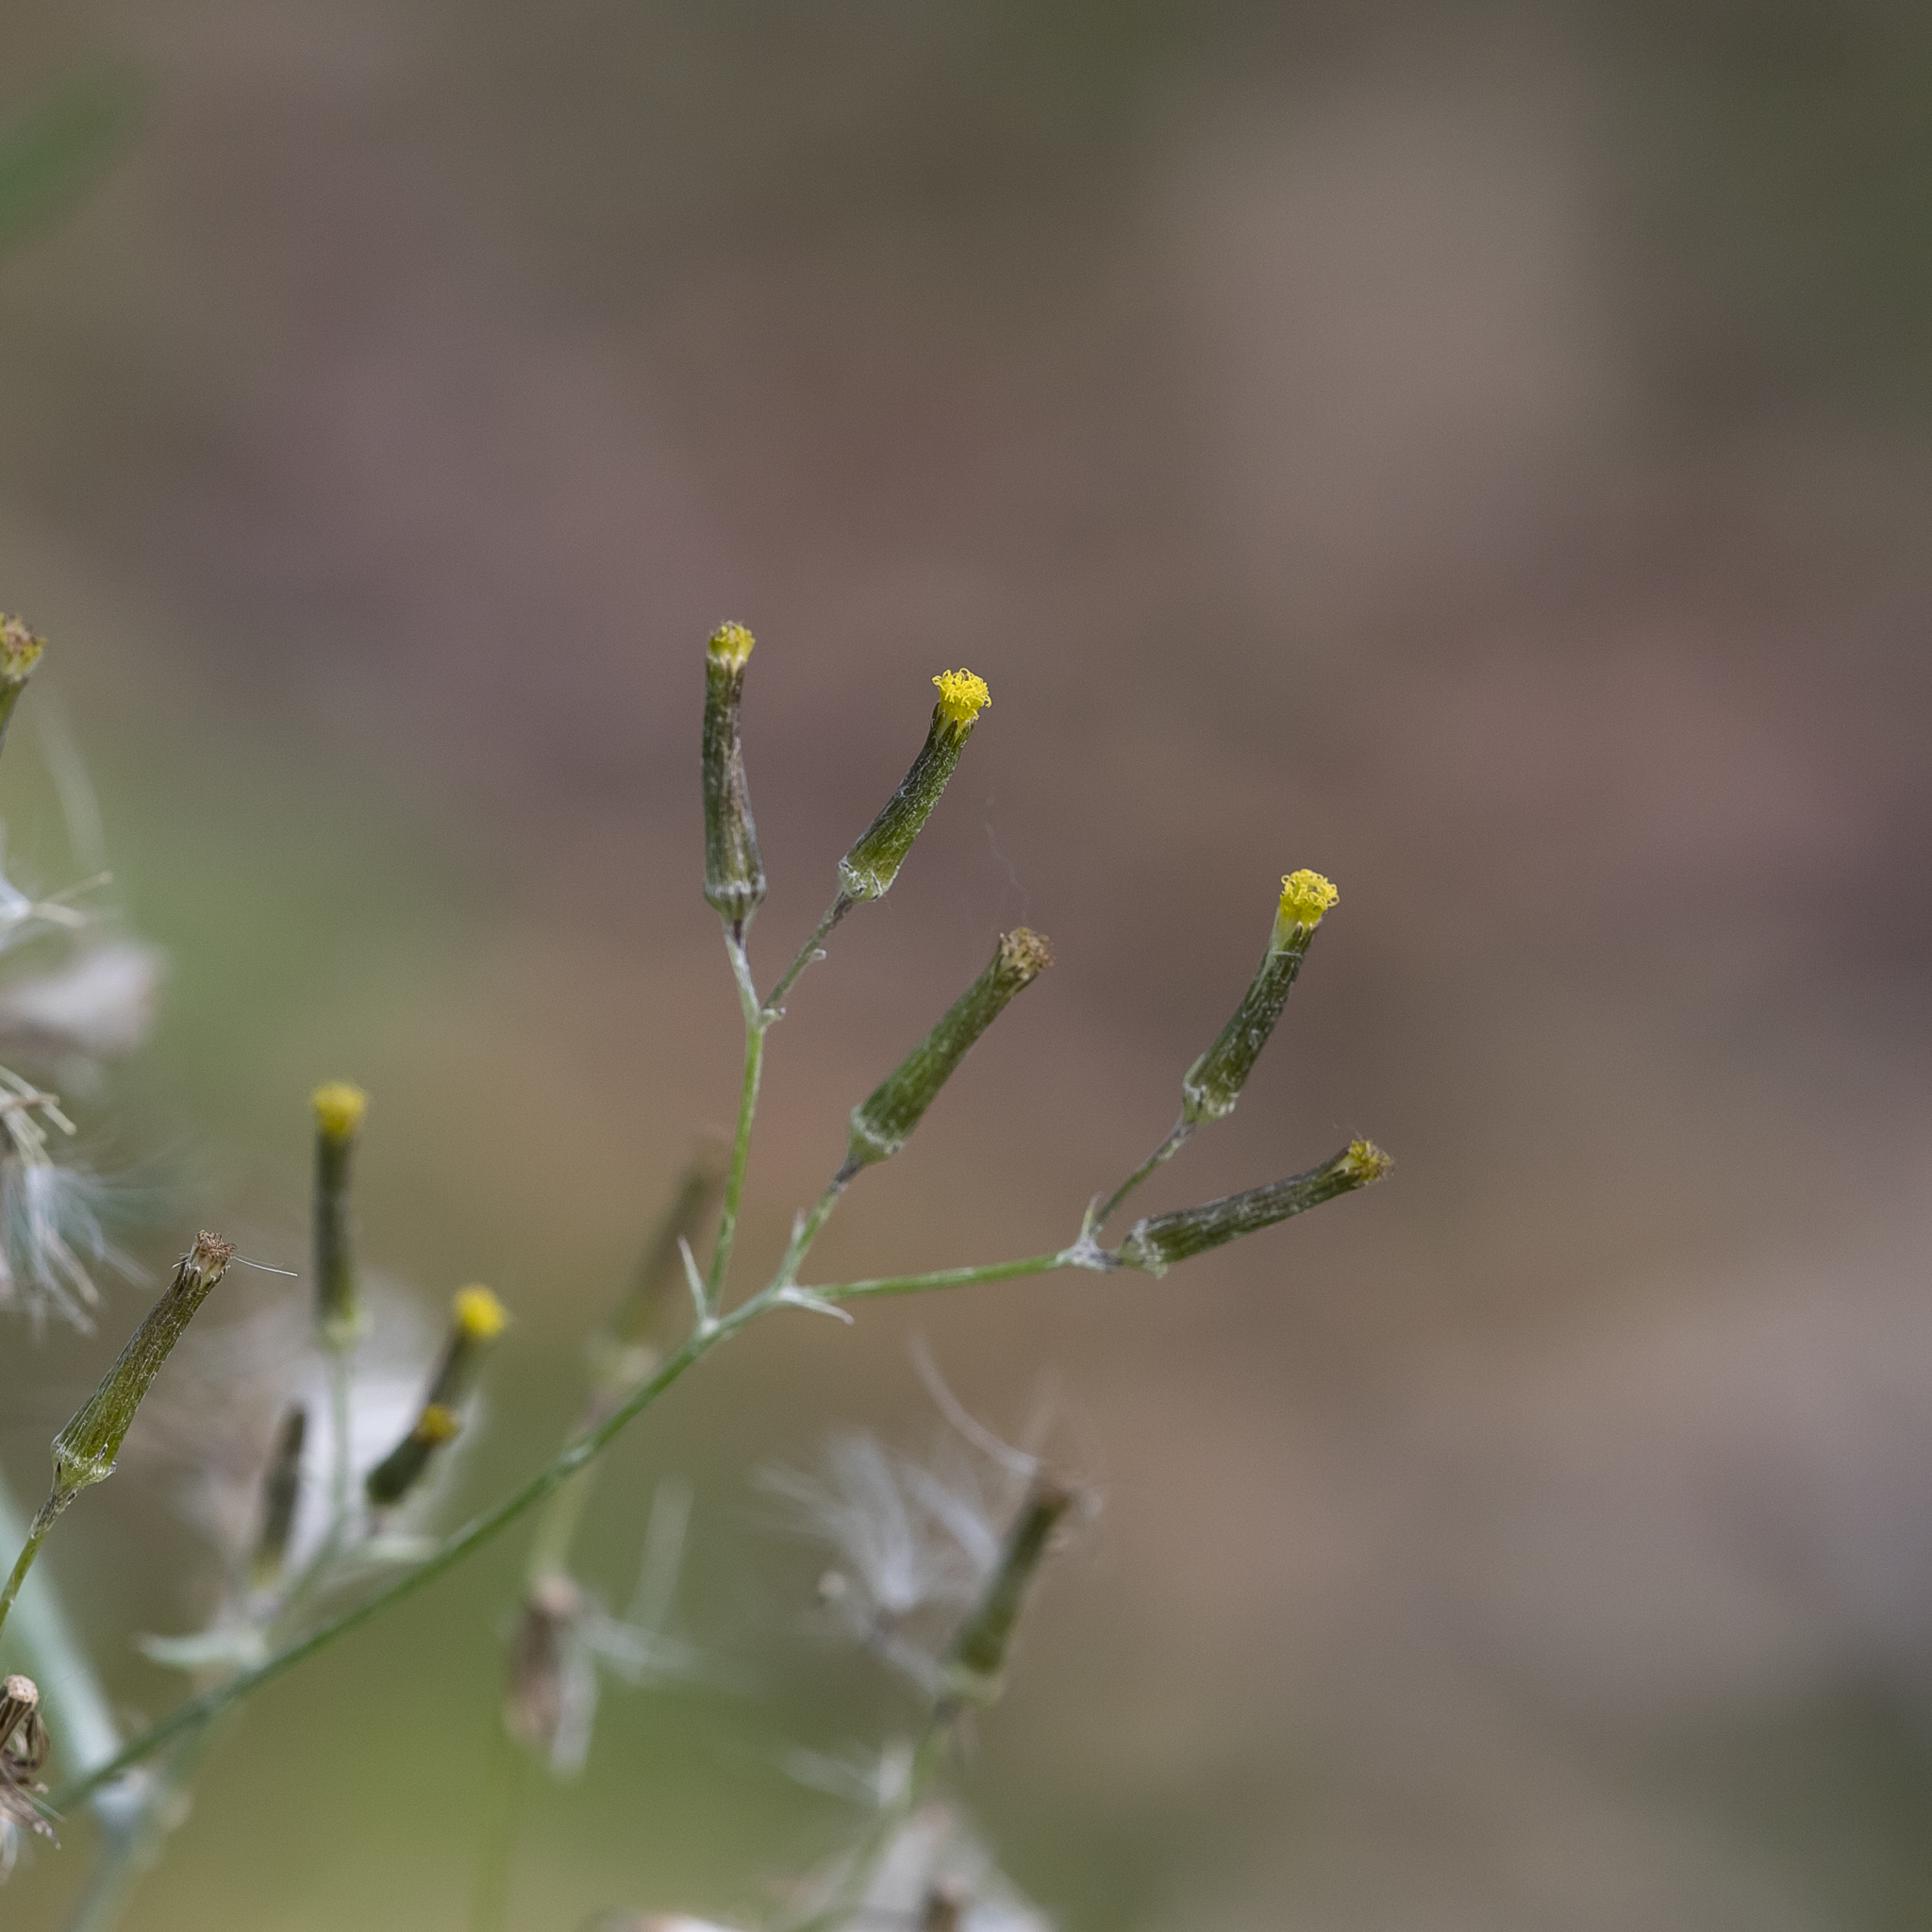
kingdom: Plantae
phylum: Tracheophyta
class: Magnoliopsida
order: Asterales
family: Asteraceae
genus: Senecio
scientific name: Senecio quadridentatus
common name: Cotton fireweed
